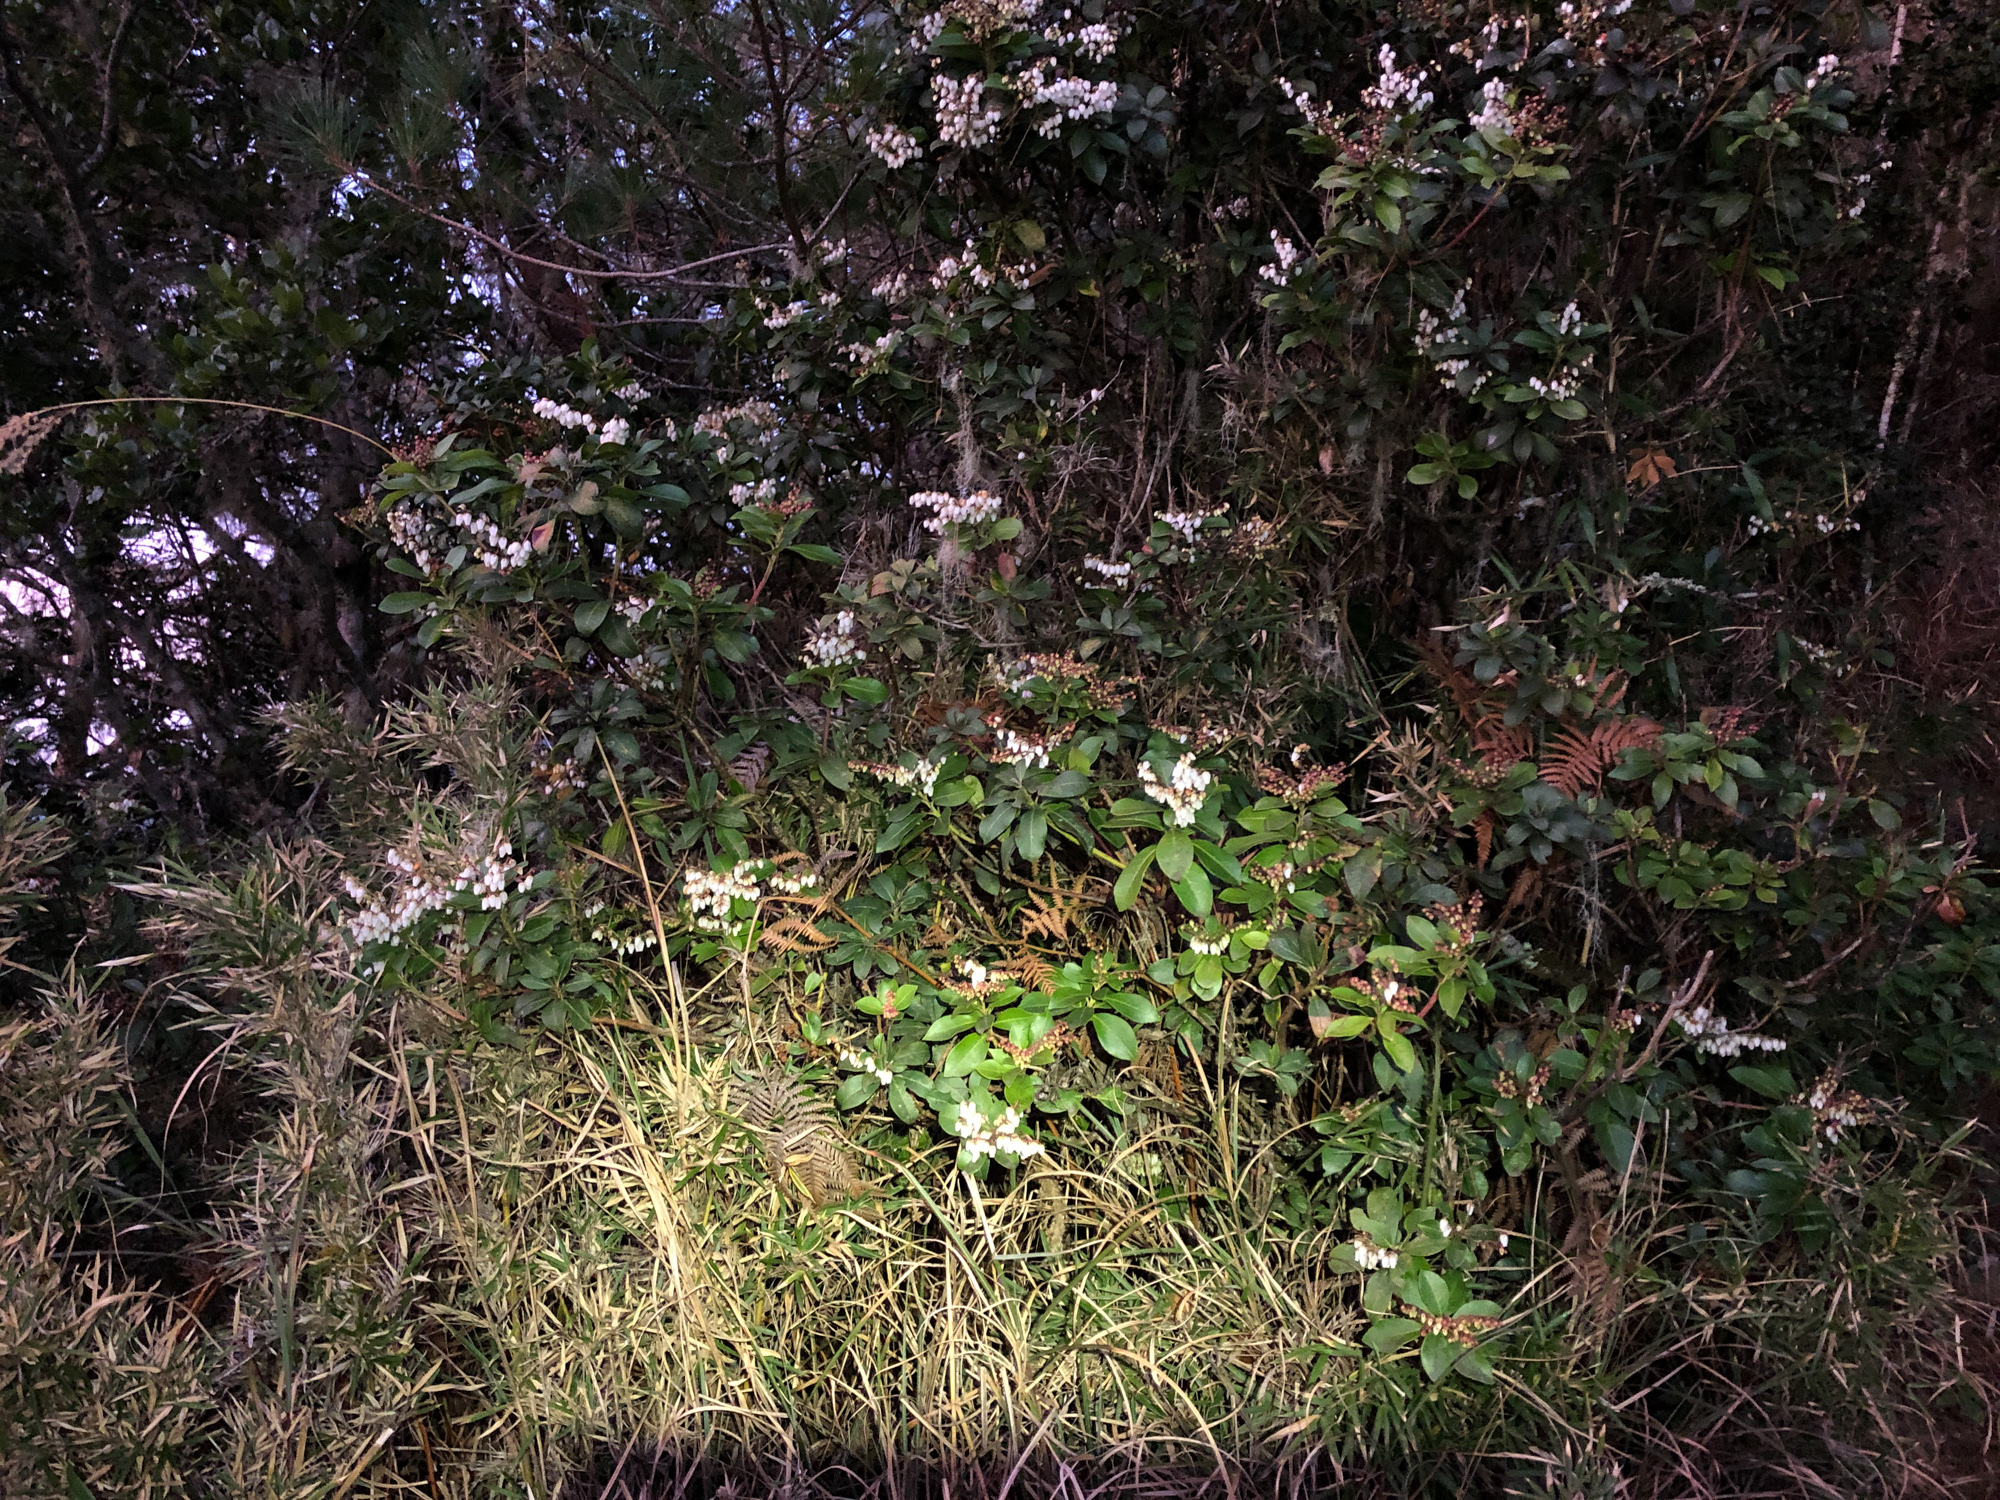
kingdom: Plantae
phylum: Tracheophyta
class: Magnoliopsida
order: Ericales
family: Ericaceae
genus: Pieris
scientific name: Pieris japonica
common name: Japanese pieris
